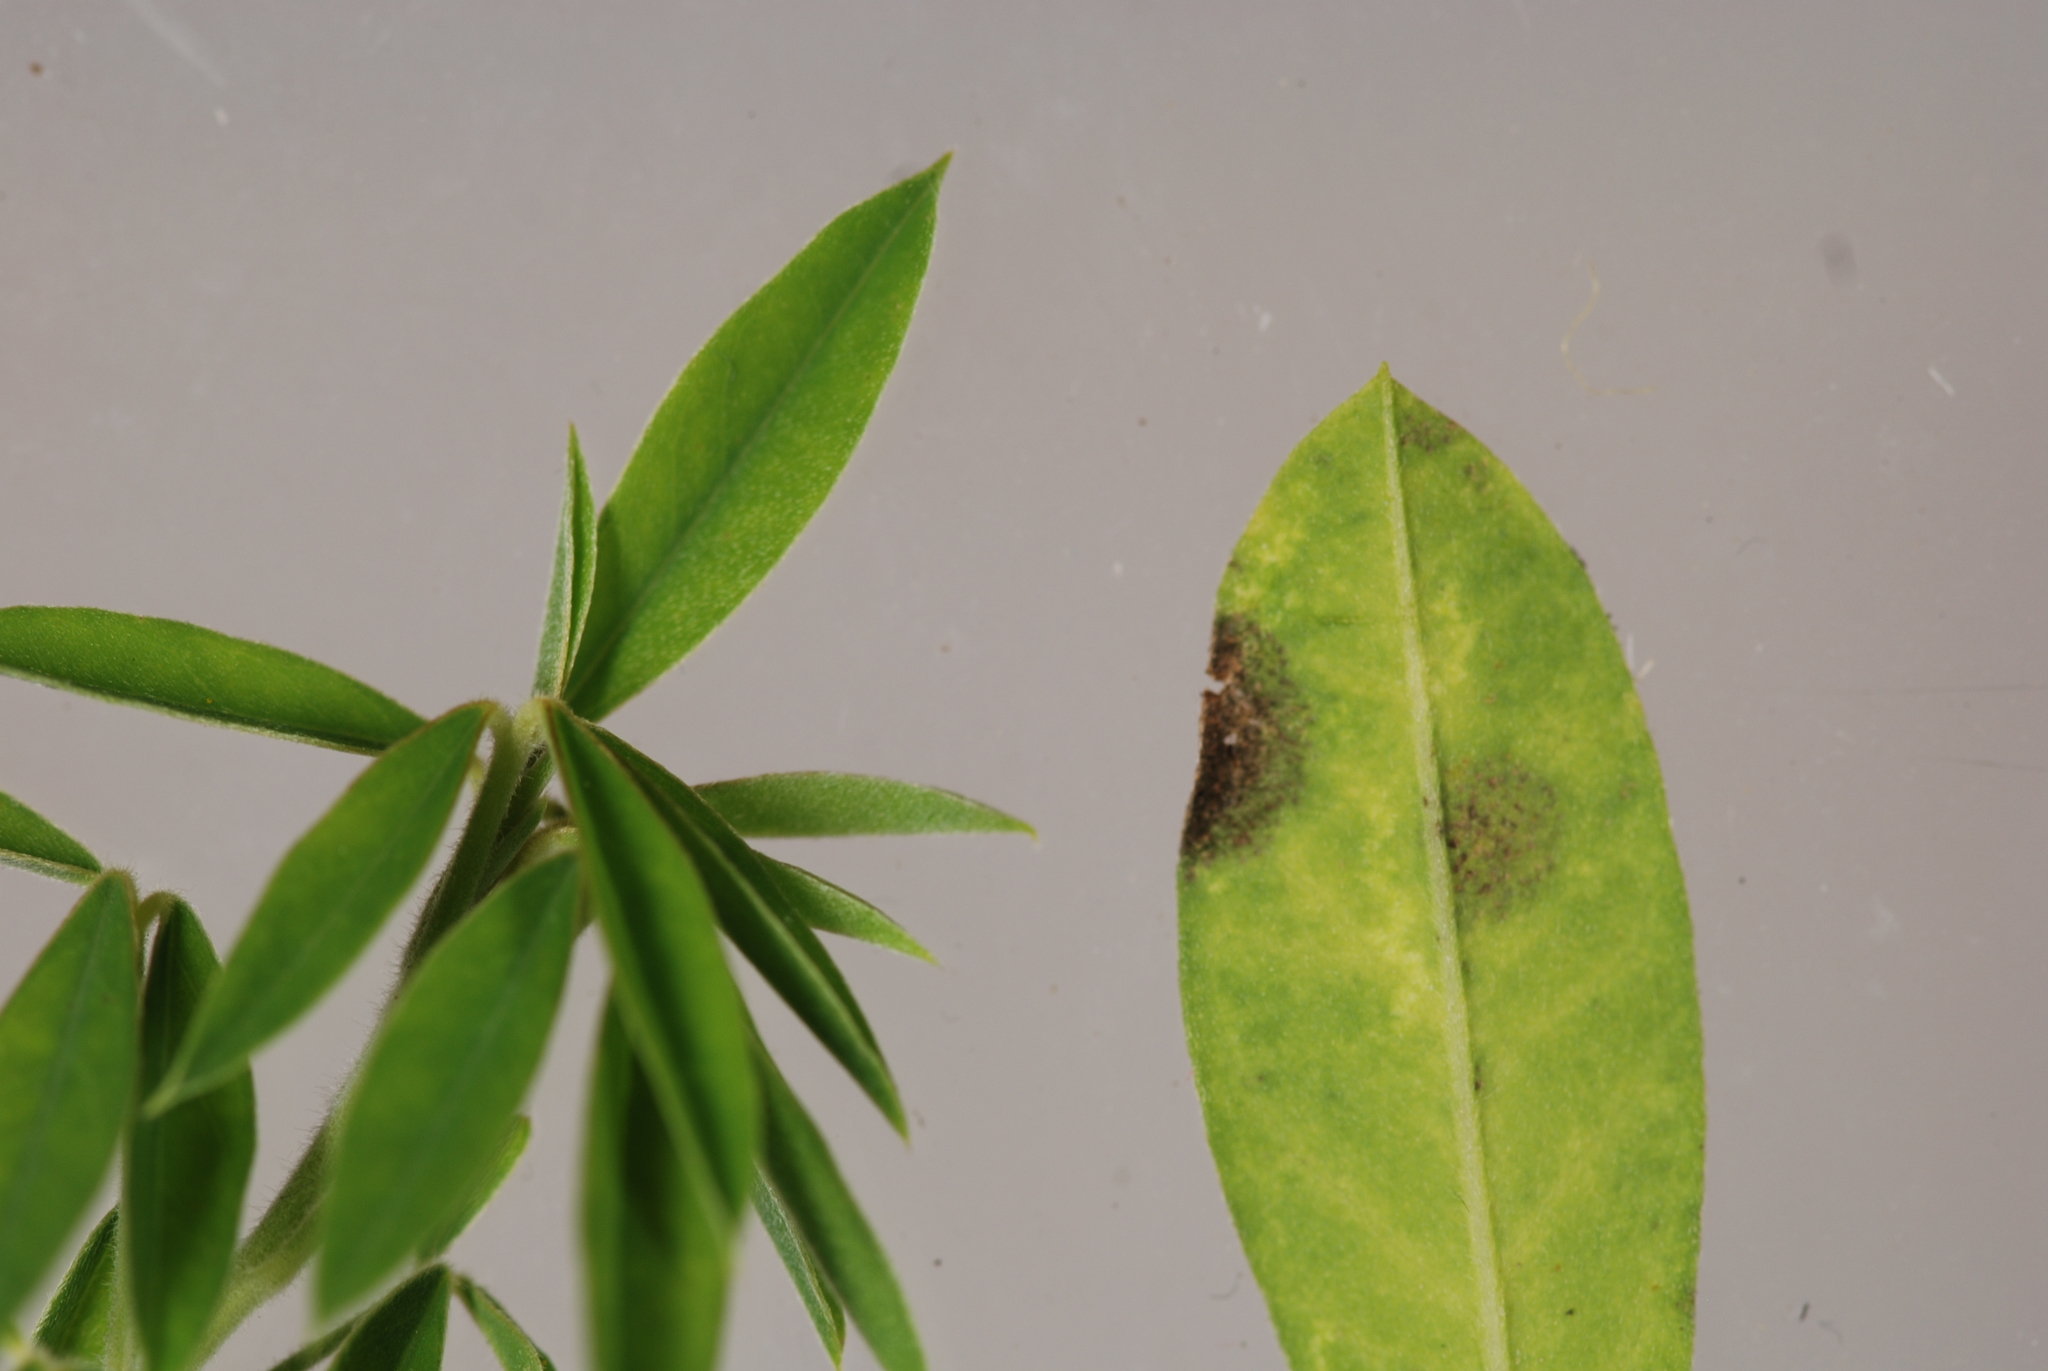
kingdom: Fungi
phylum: Ascomycota
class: Dothideomycetes
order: Mycosphaerellales
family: Mycosphaerellaceae
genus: Pseudocercospora
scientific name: Pseudocercospora nogalesii
